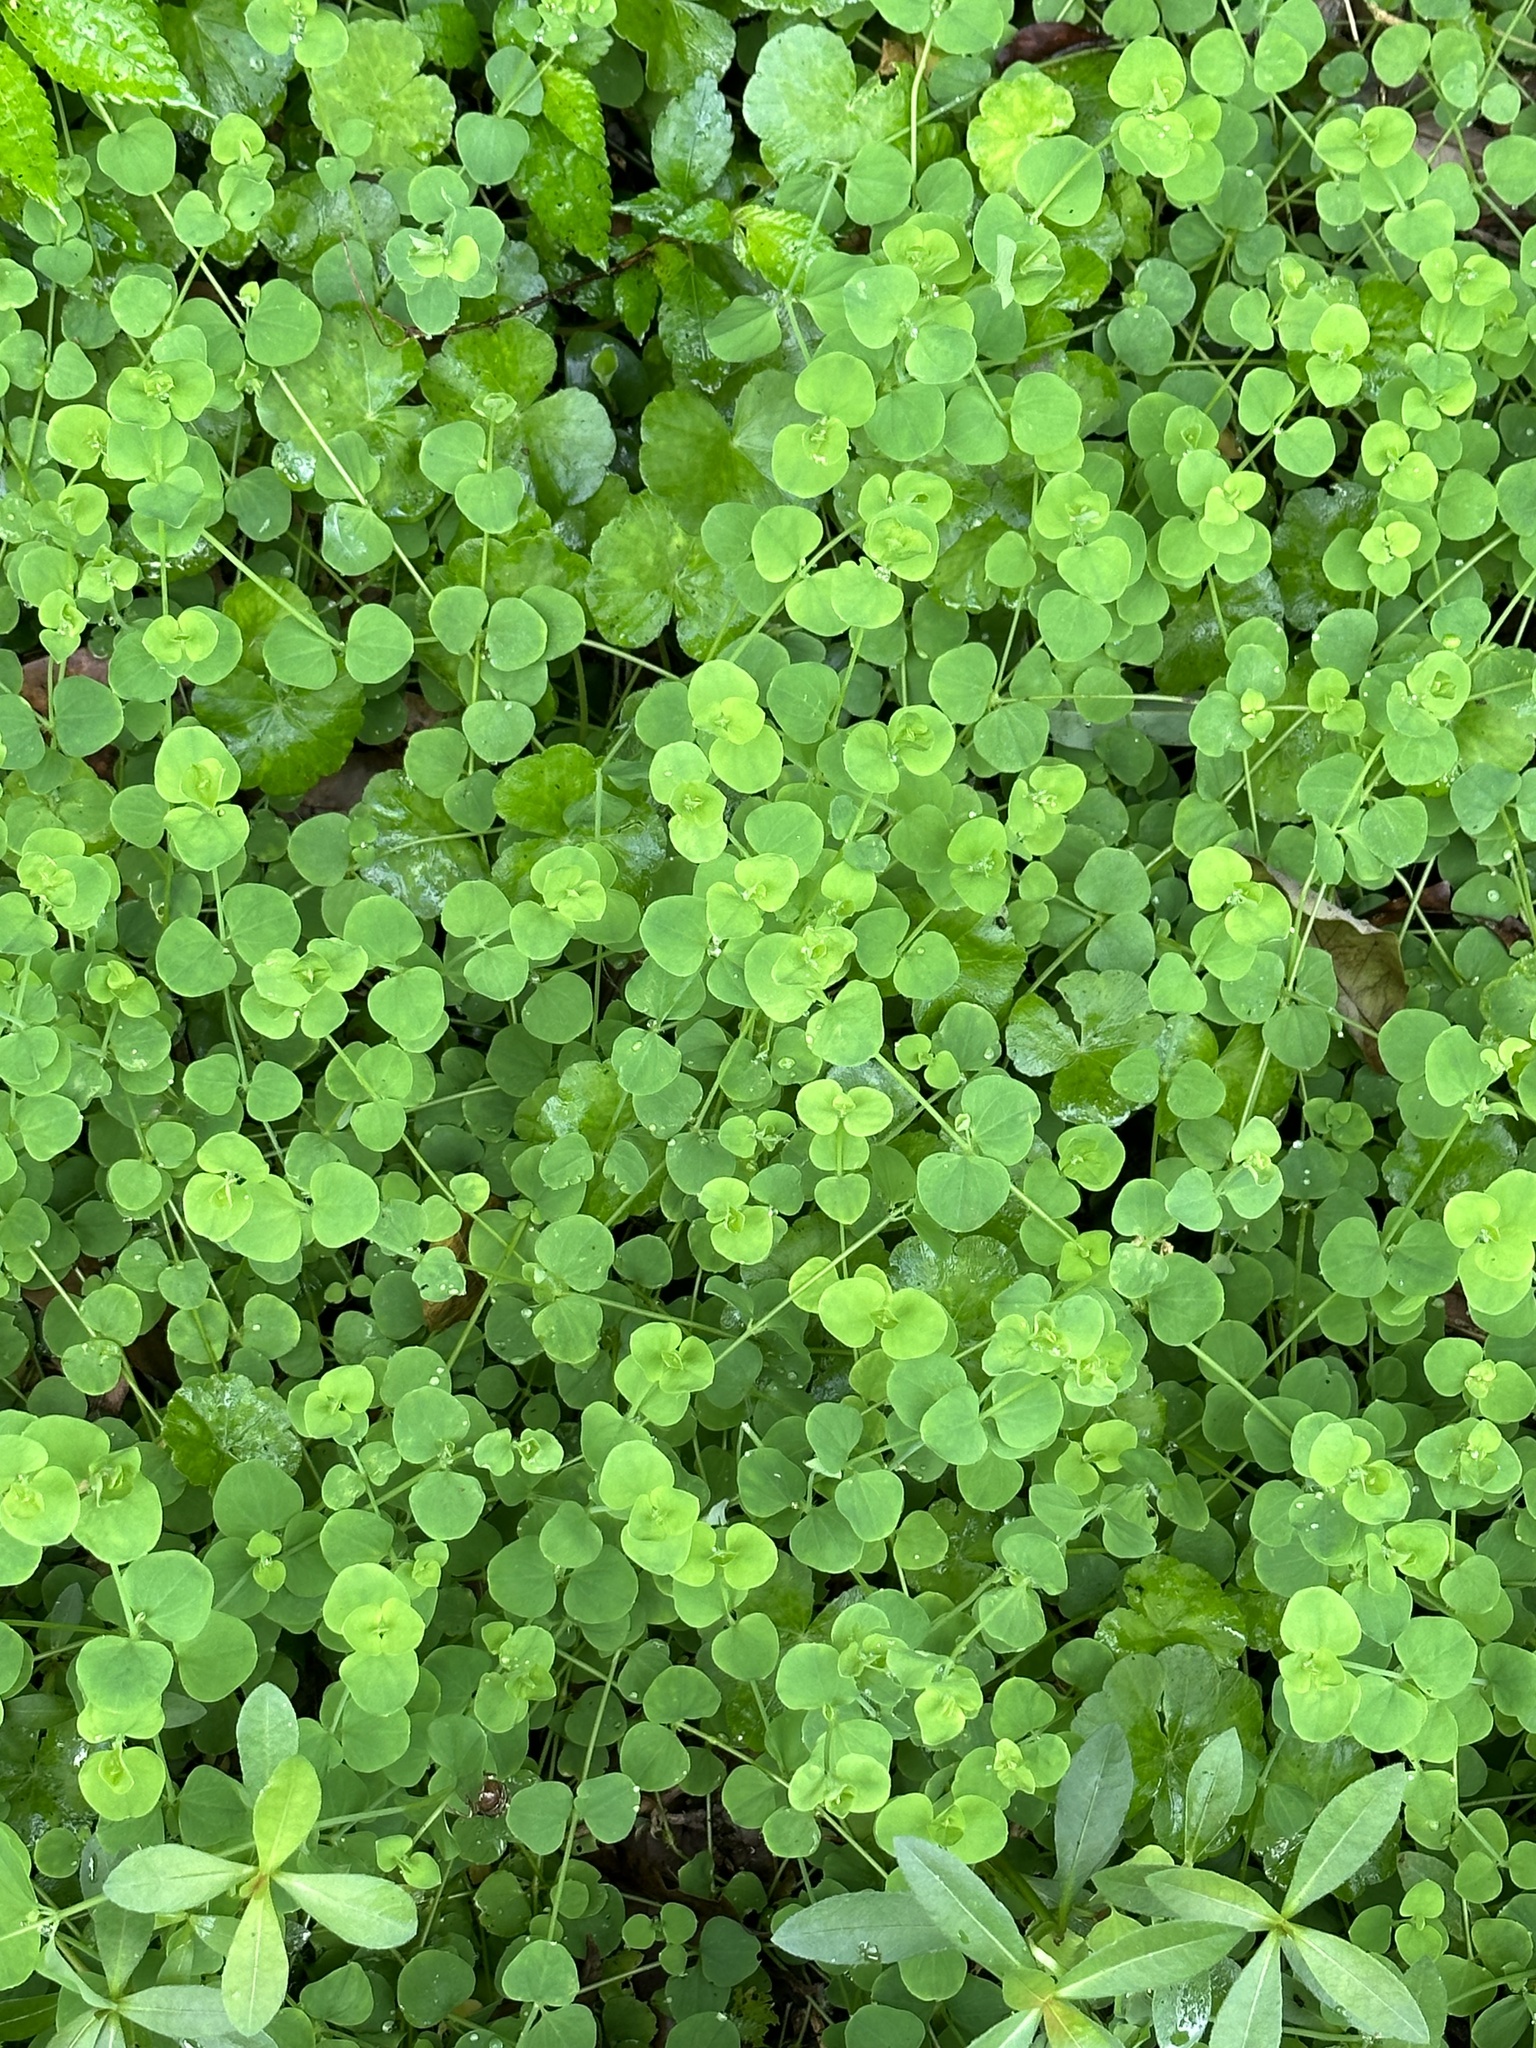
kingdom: Plantae
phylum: Tracheophyta
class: Magnoliopsida
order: Caryophyllales
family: Caryophyllaceae
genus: Drymaria
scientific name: Drymaria cordata
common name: Whitesnow
